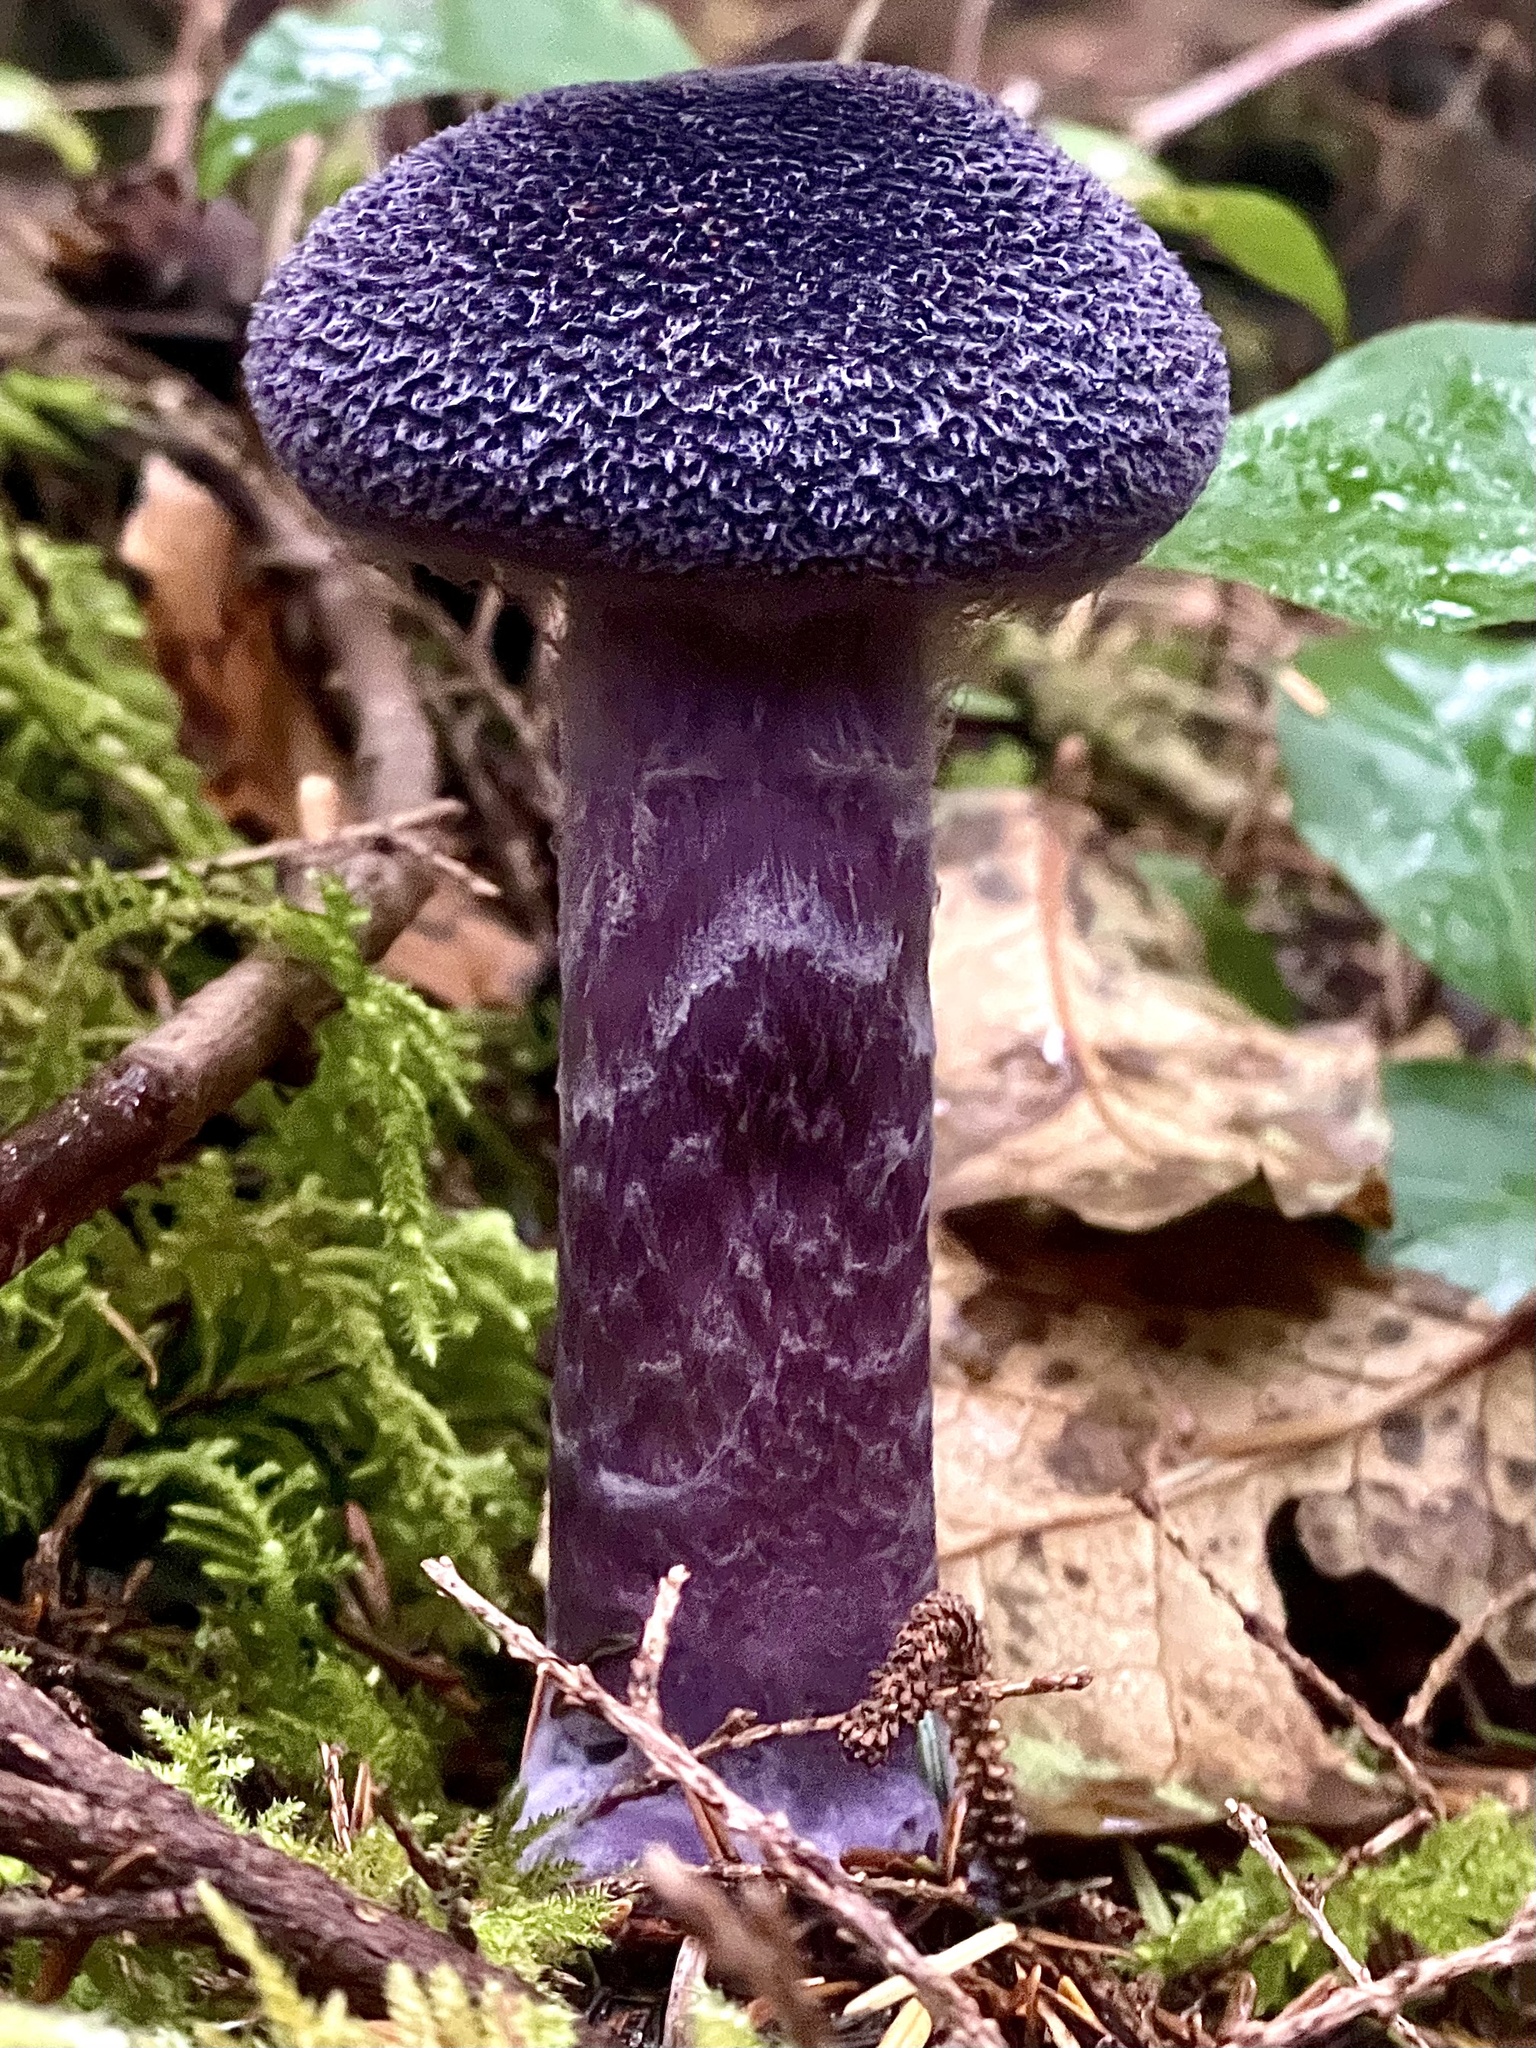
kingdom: Fungi
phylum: Basidiomycota
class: Agaricomycetes
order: Agaricales
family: Cortinariaceae
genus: Cortinarius
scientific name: Cortinarius violaceus
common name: Violet webcap
